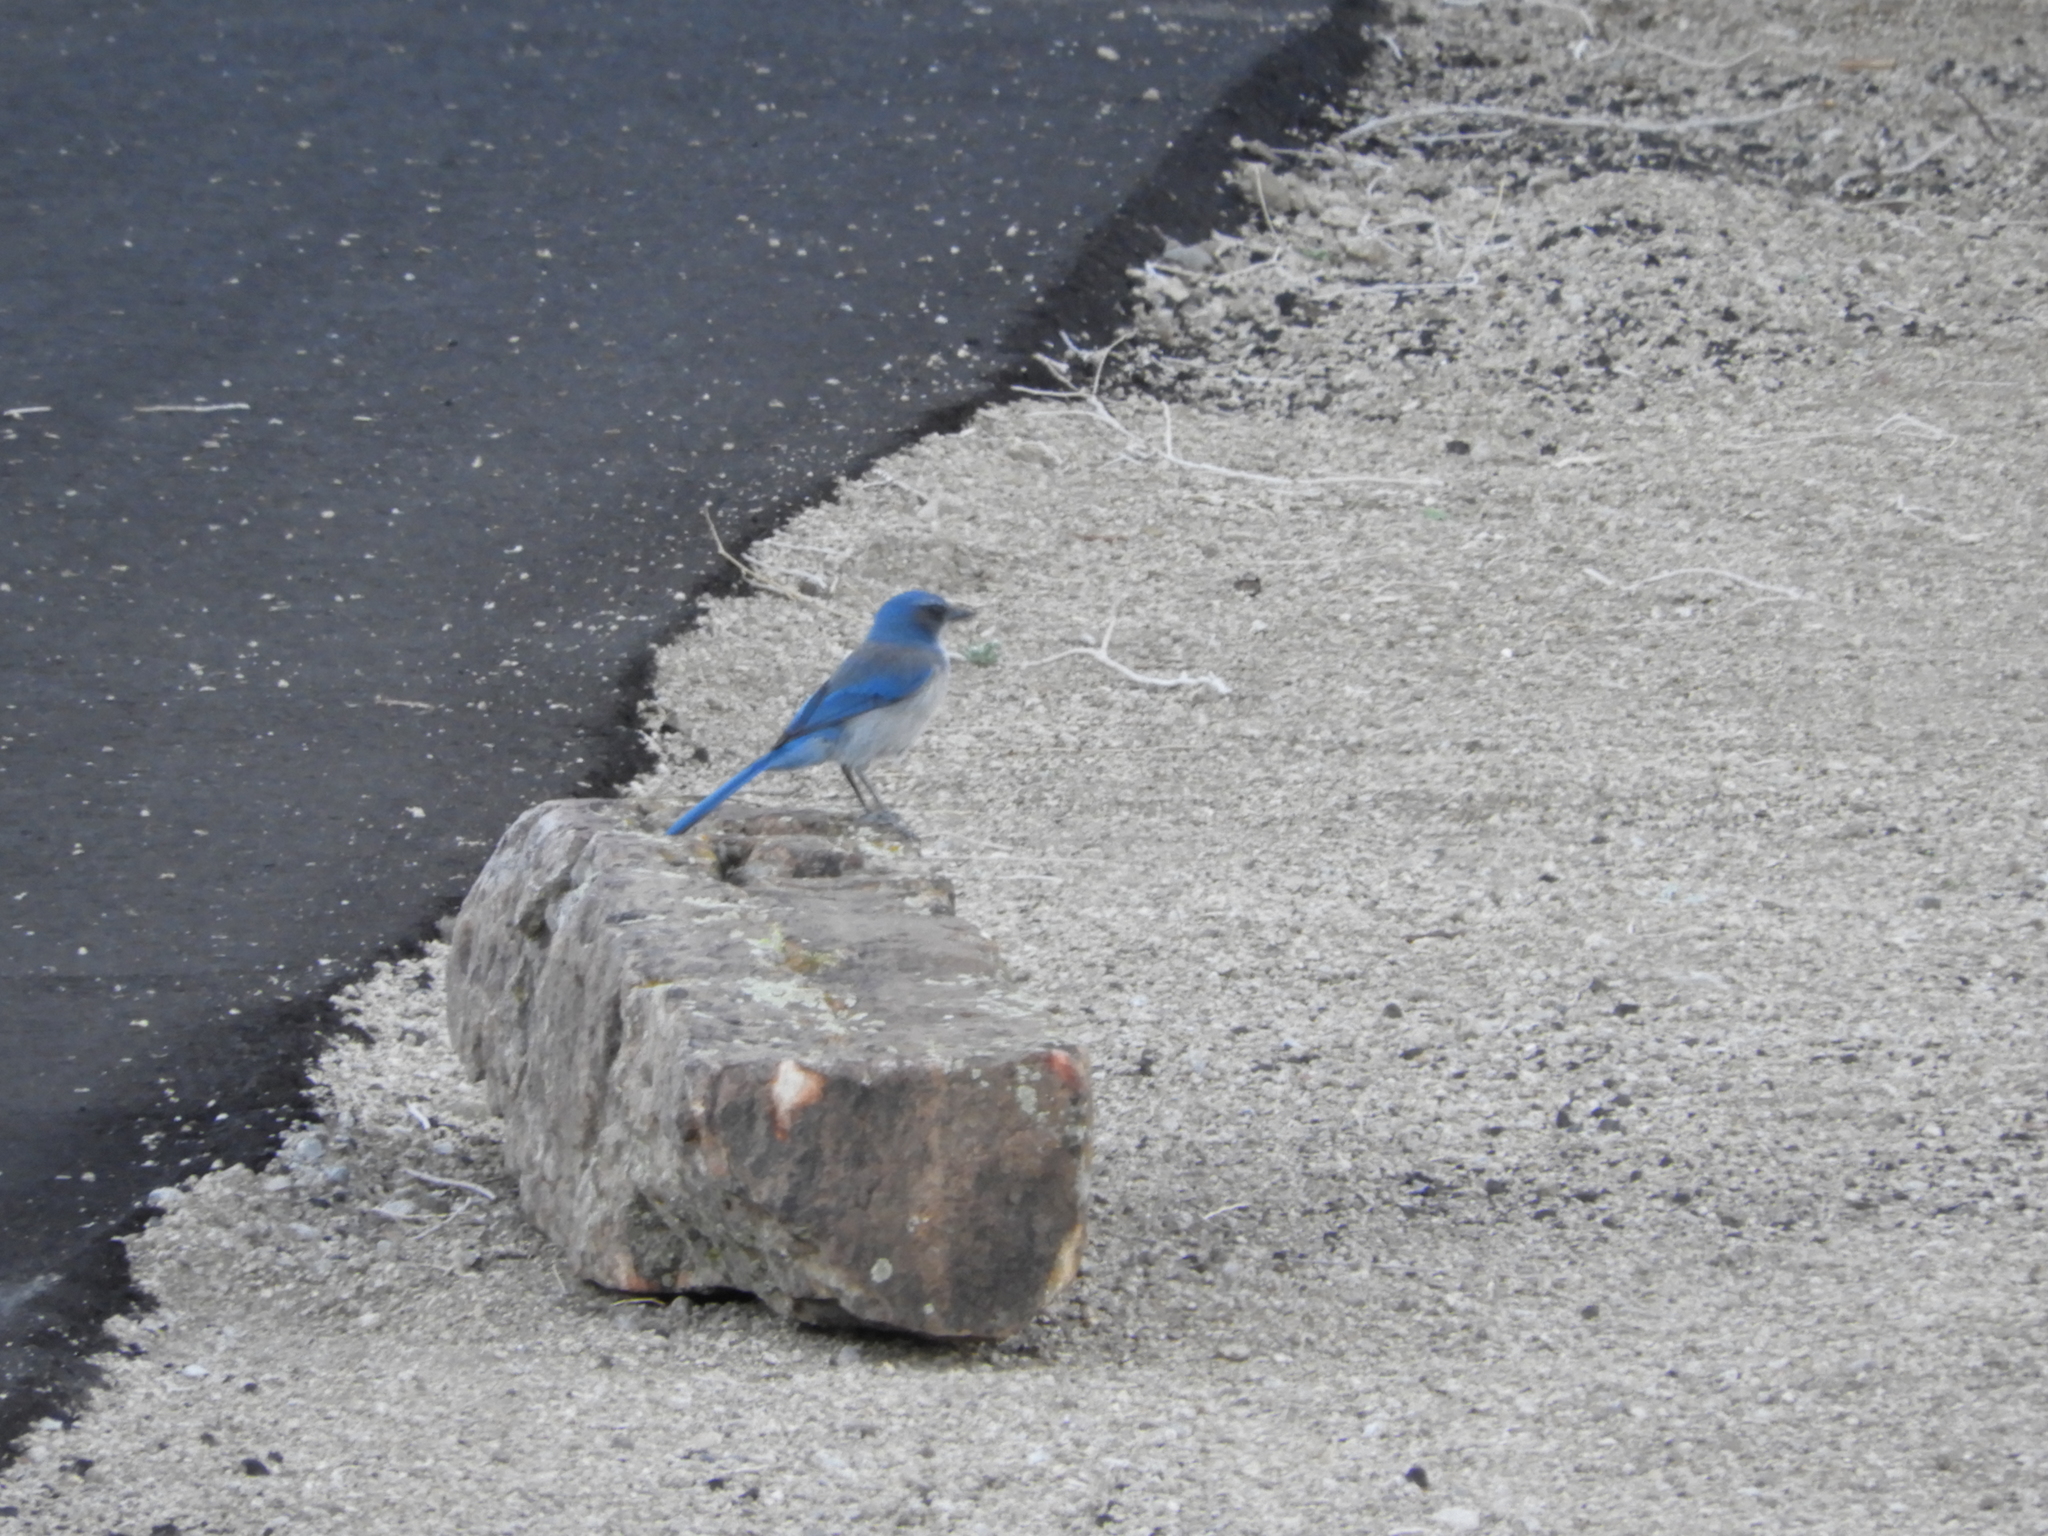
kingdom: Animalia
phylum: Chordata
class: Aves
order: Passeriformes
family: Corvidae
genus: Aphelocoma
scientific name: Aphelocoma woodhouseii
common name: Woodhouse's scrub-jay
